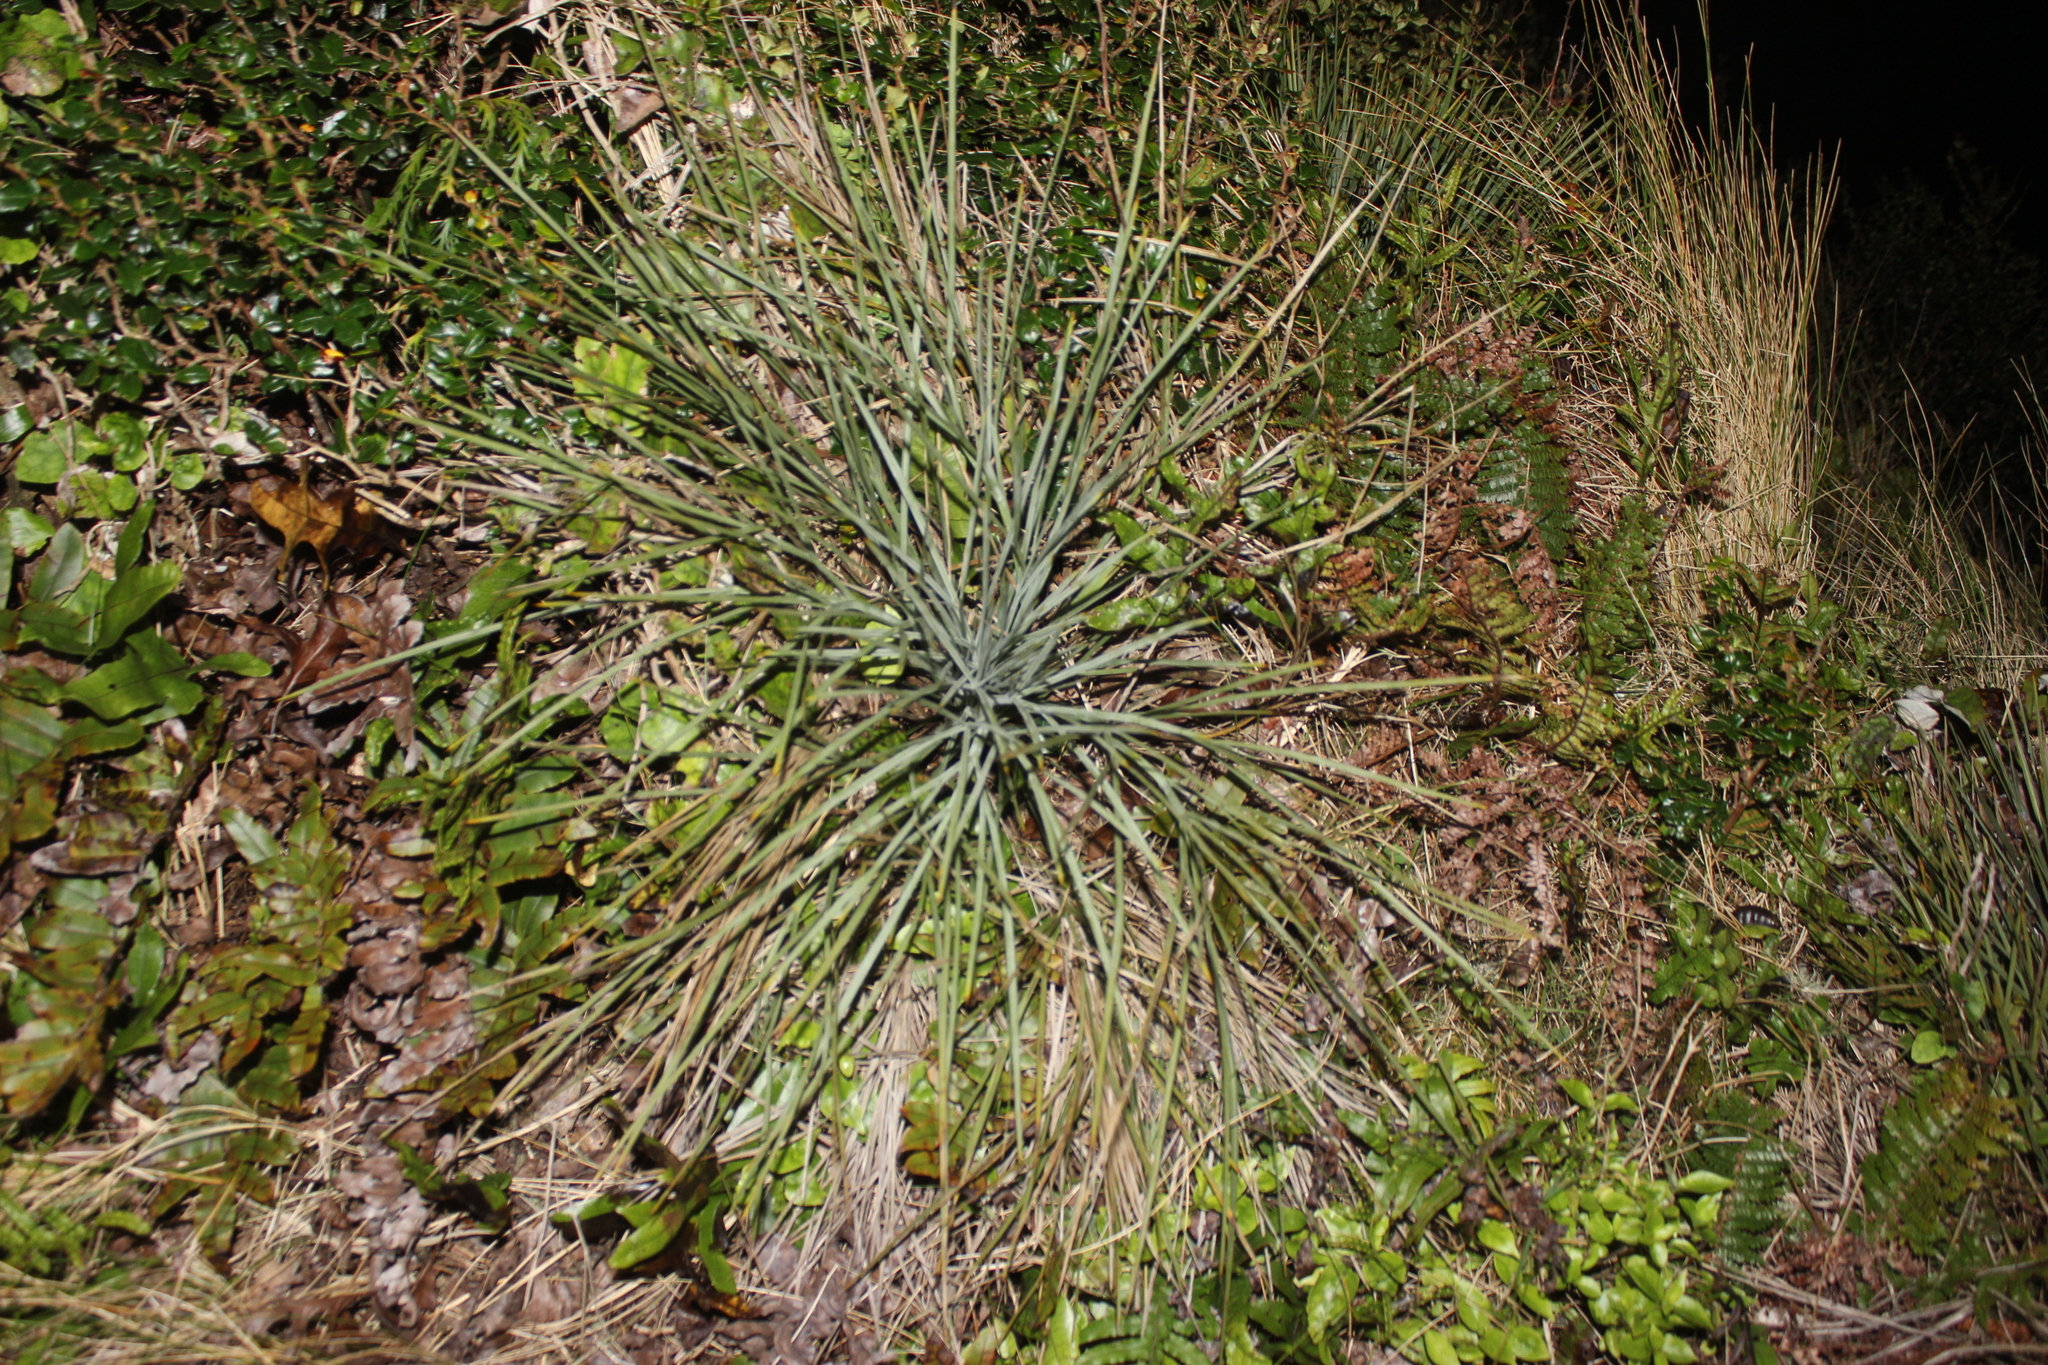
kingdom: Plantae
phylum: Tracheophyta
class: Magnoliopsida
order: Apiales
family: Apiaceae
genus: Aciphylla
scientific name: Aciphylla squarrosa
